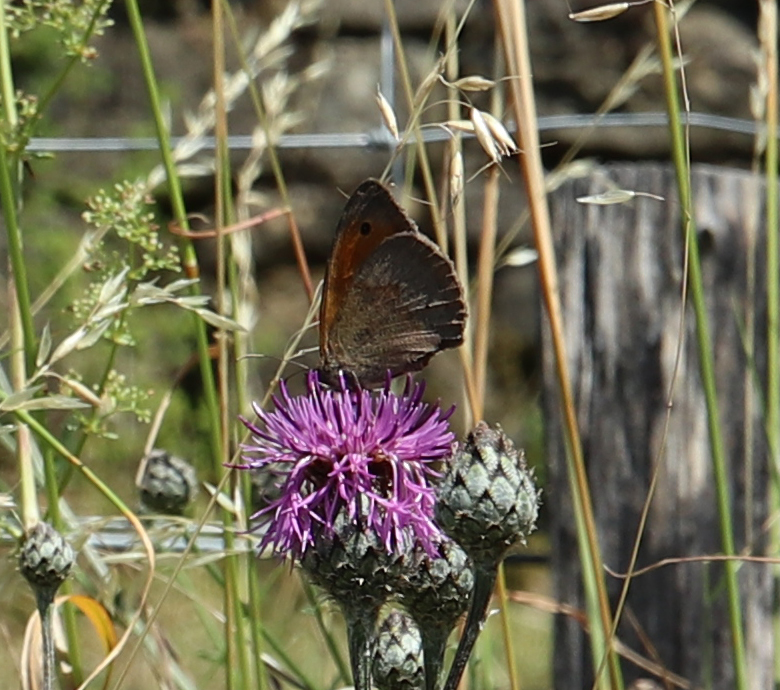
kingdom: Animalia
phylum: Arthropoda
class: Insecta
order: Lepidoptera
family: Nymphalidae
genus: Maniola
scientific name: Maniola jurtina
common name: Meadow brown
